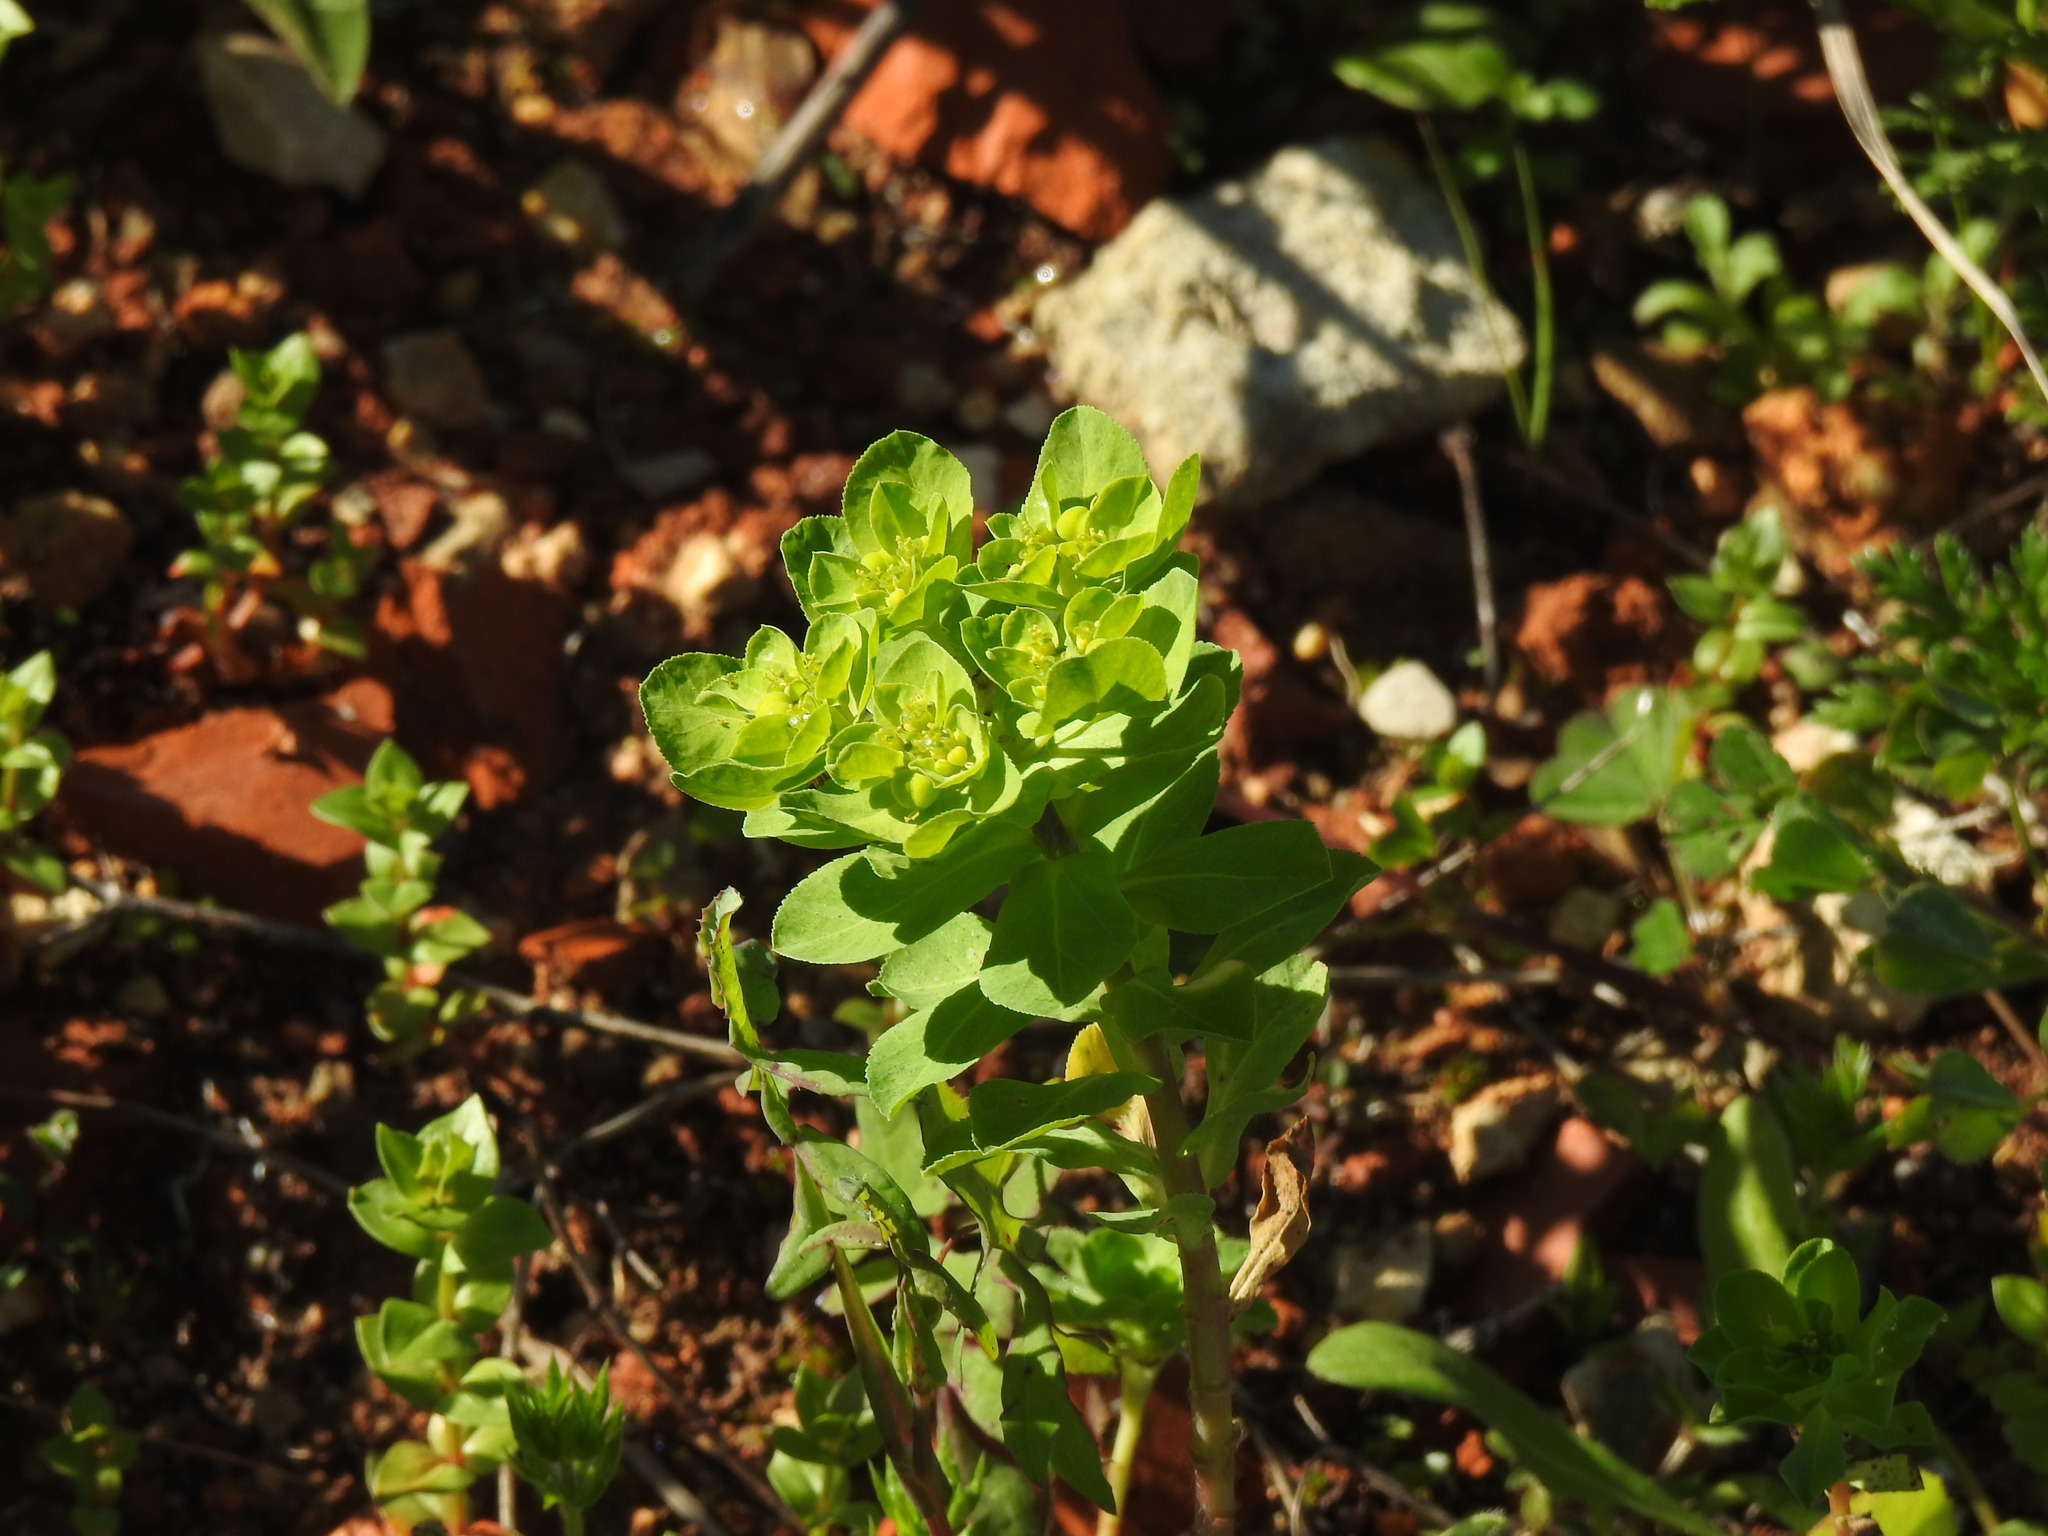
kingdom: Plantae
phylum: Tracheophyta
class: Magnoliopsida
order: Malpighiales
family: Euphorbiaceae
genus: Euphorbia
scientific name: Euphorbia helioscopia
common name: Sun spurge
